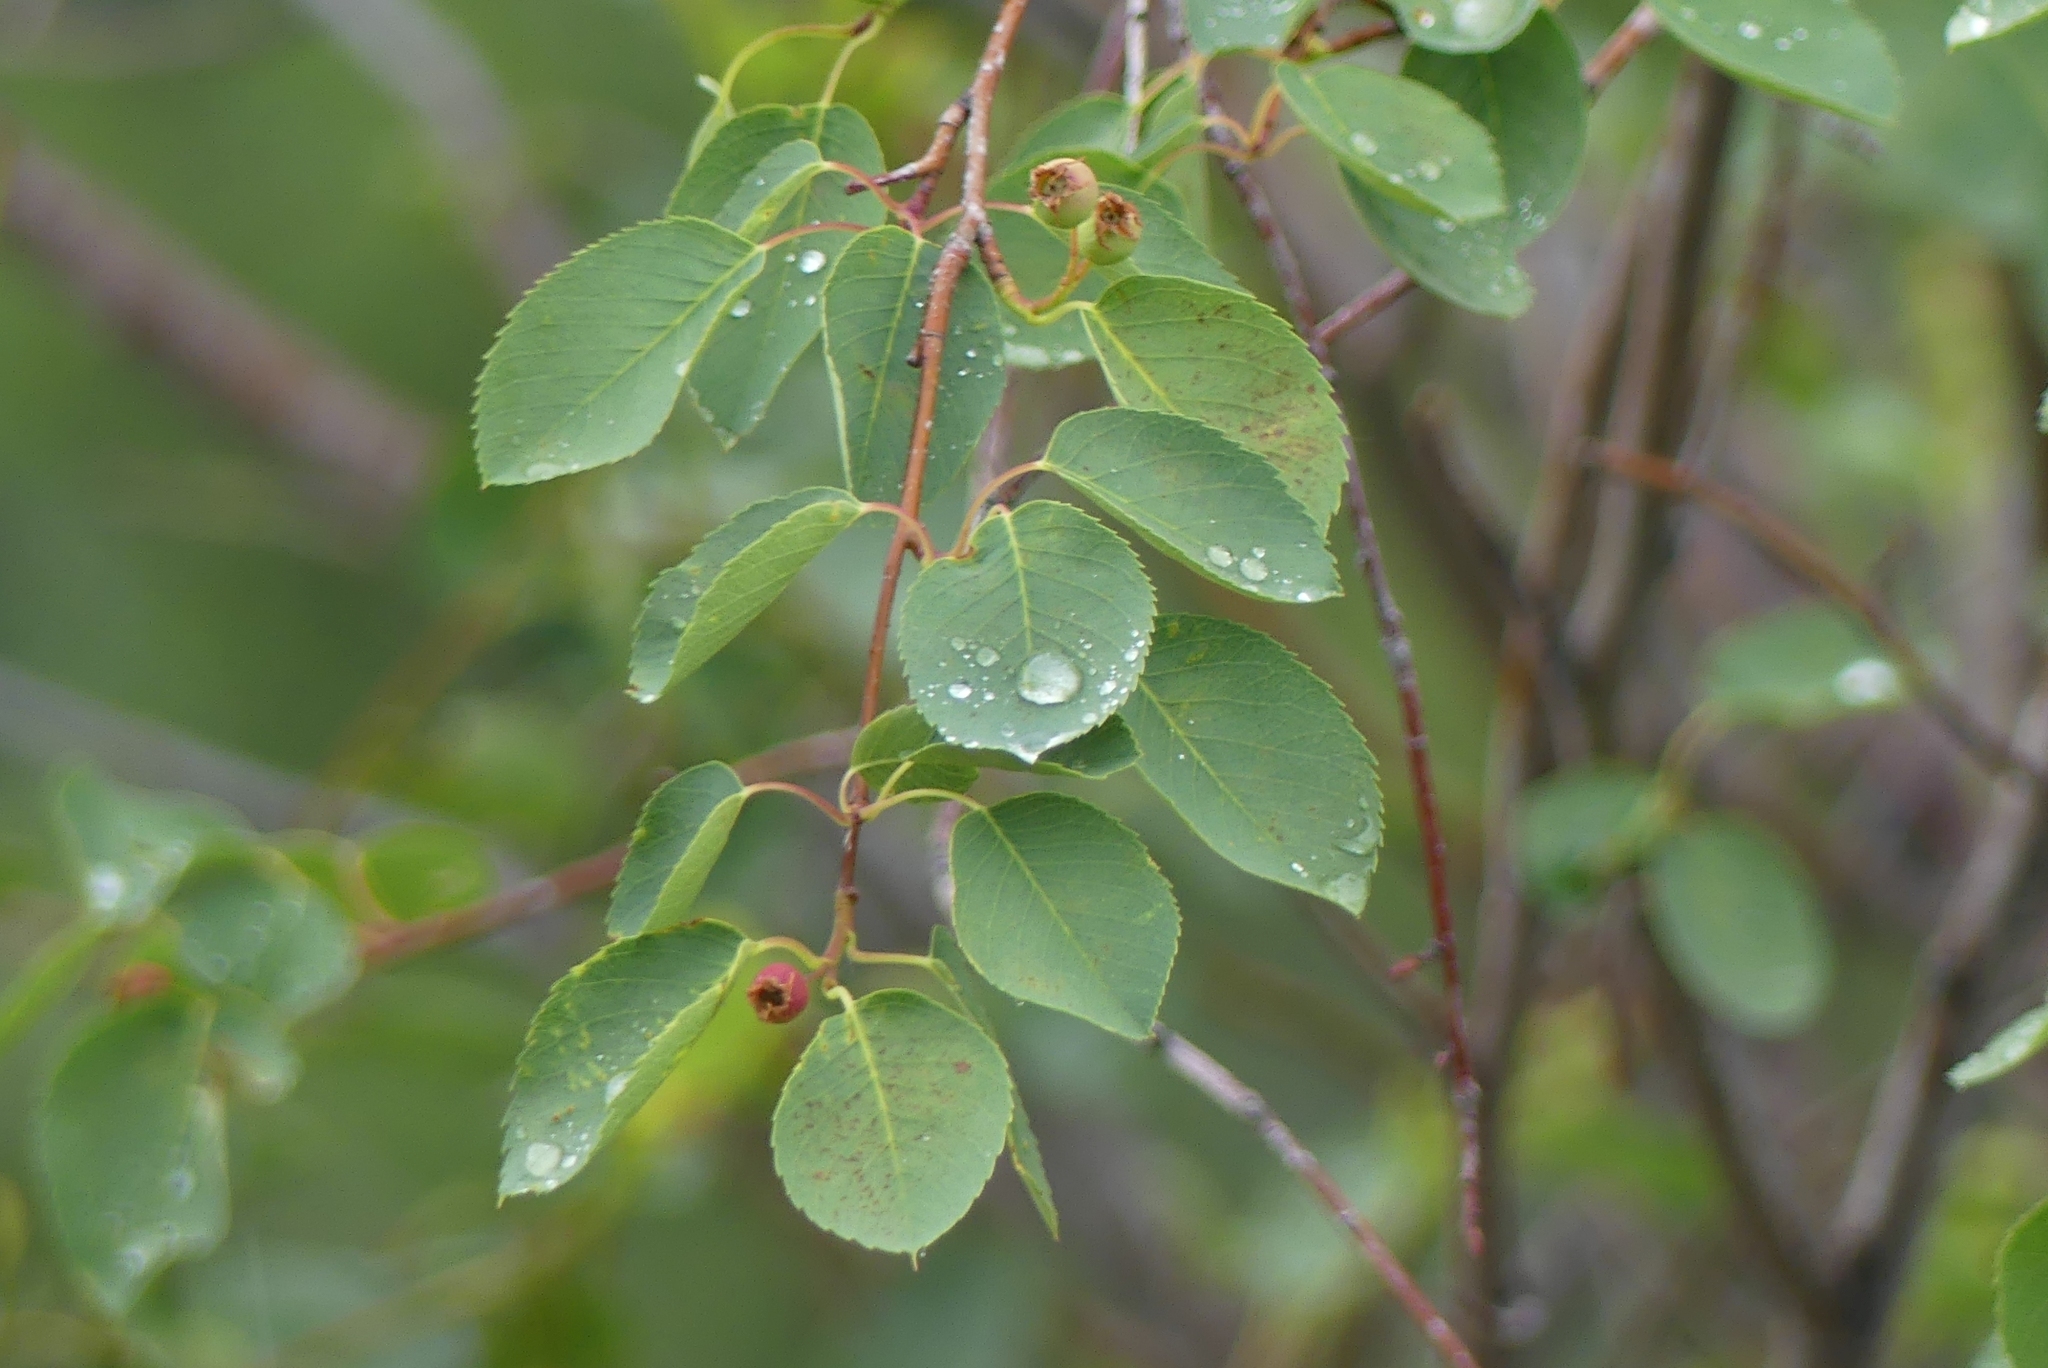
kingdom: Plantae
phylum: Tracheophyta
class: Magnoliopsida
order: Rosales
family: Rosaceae
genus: Amelanchier
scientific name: Amelanchier alnifolia
